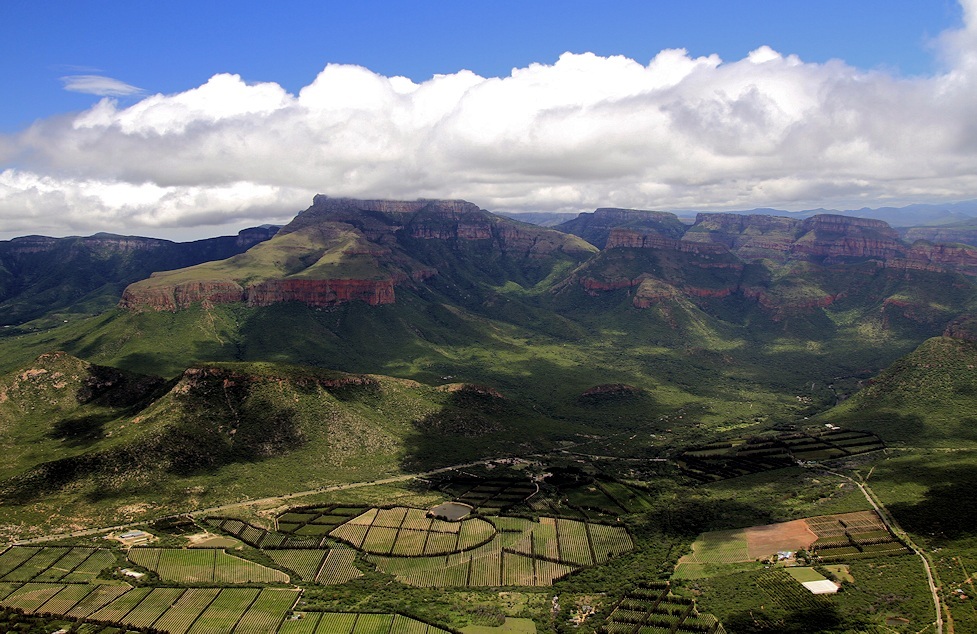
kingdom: Plantae
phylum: Tracheophyta
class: Magnoliopsida
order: Fagales
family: Casuarinaceae
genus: Casuarina
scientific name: Casuarina cunninghamiana
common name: River sheoak
